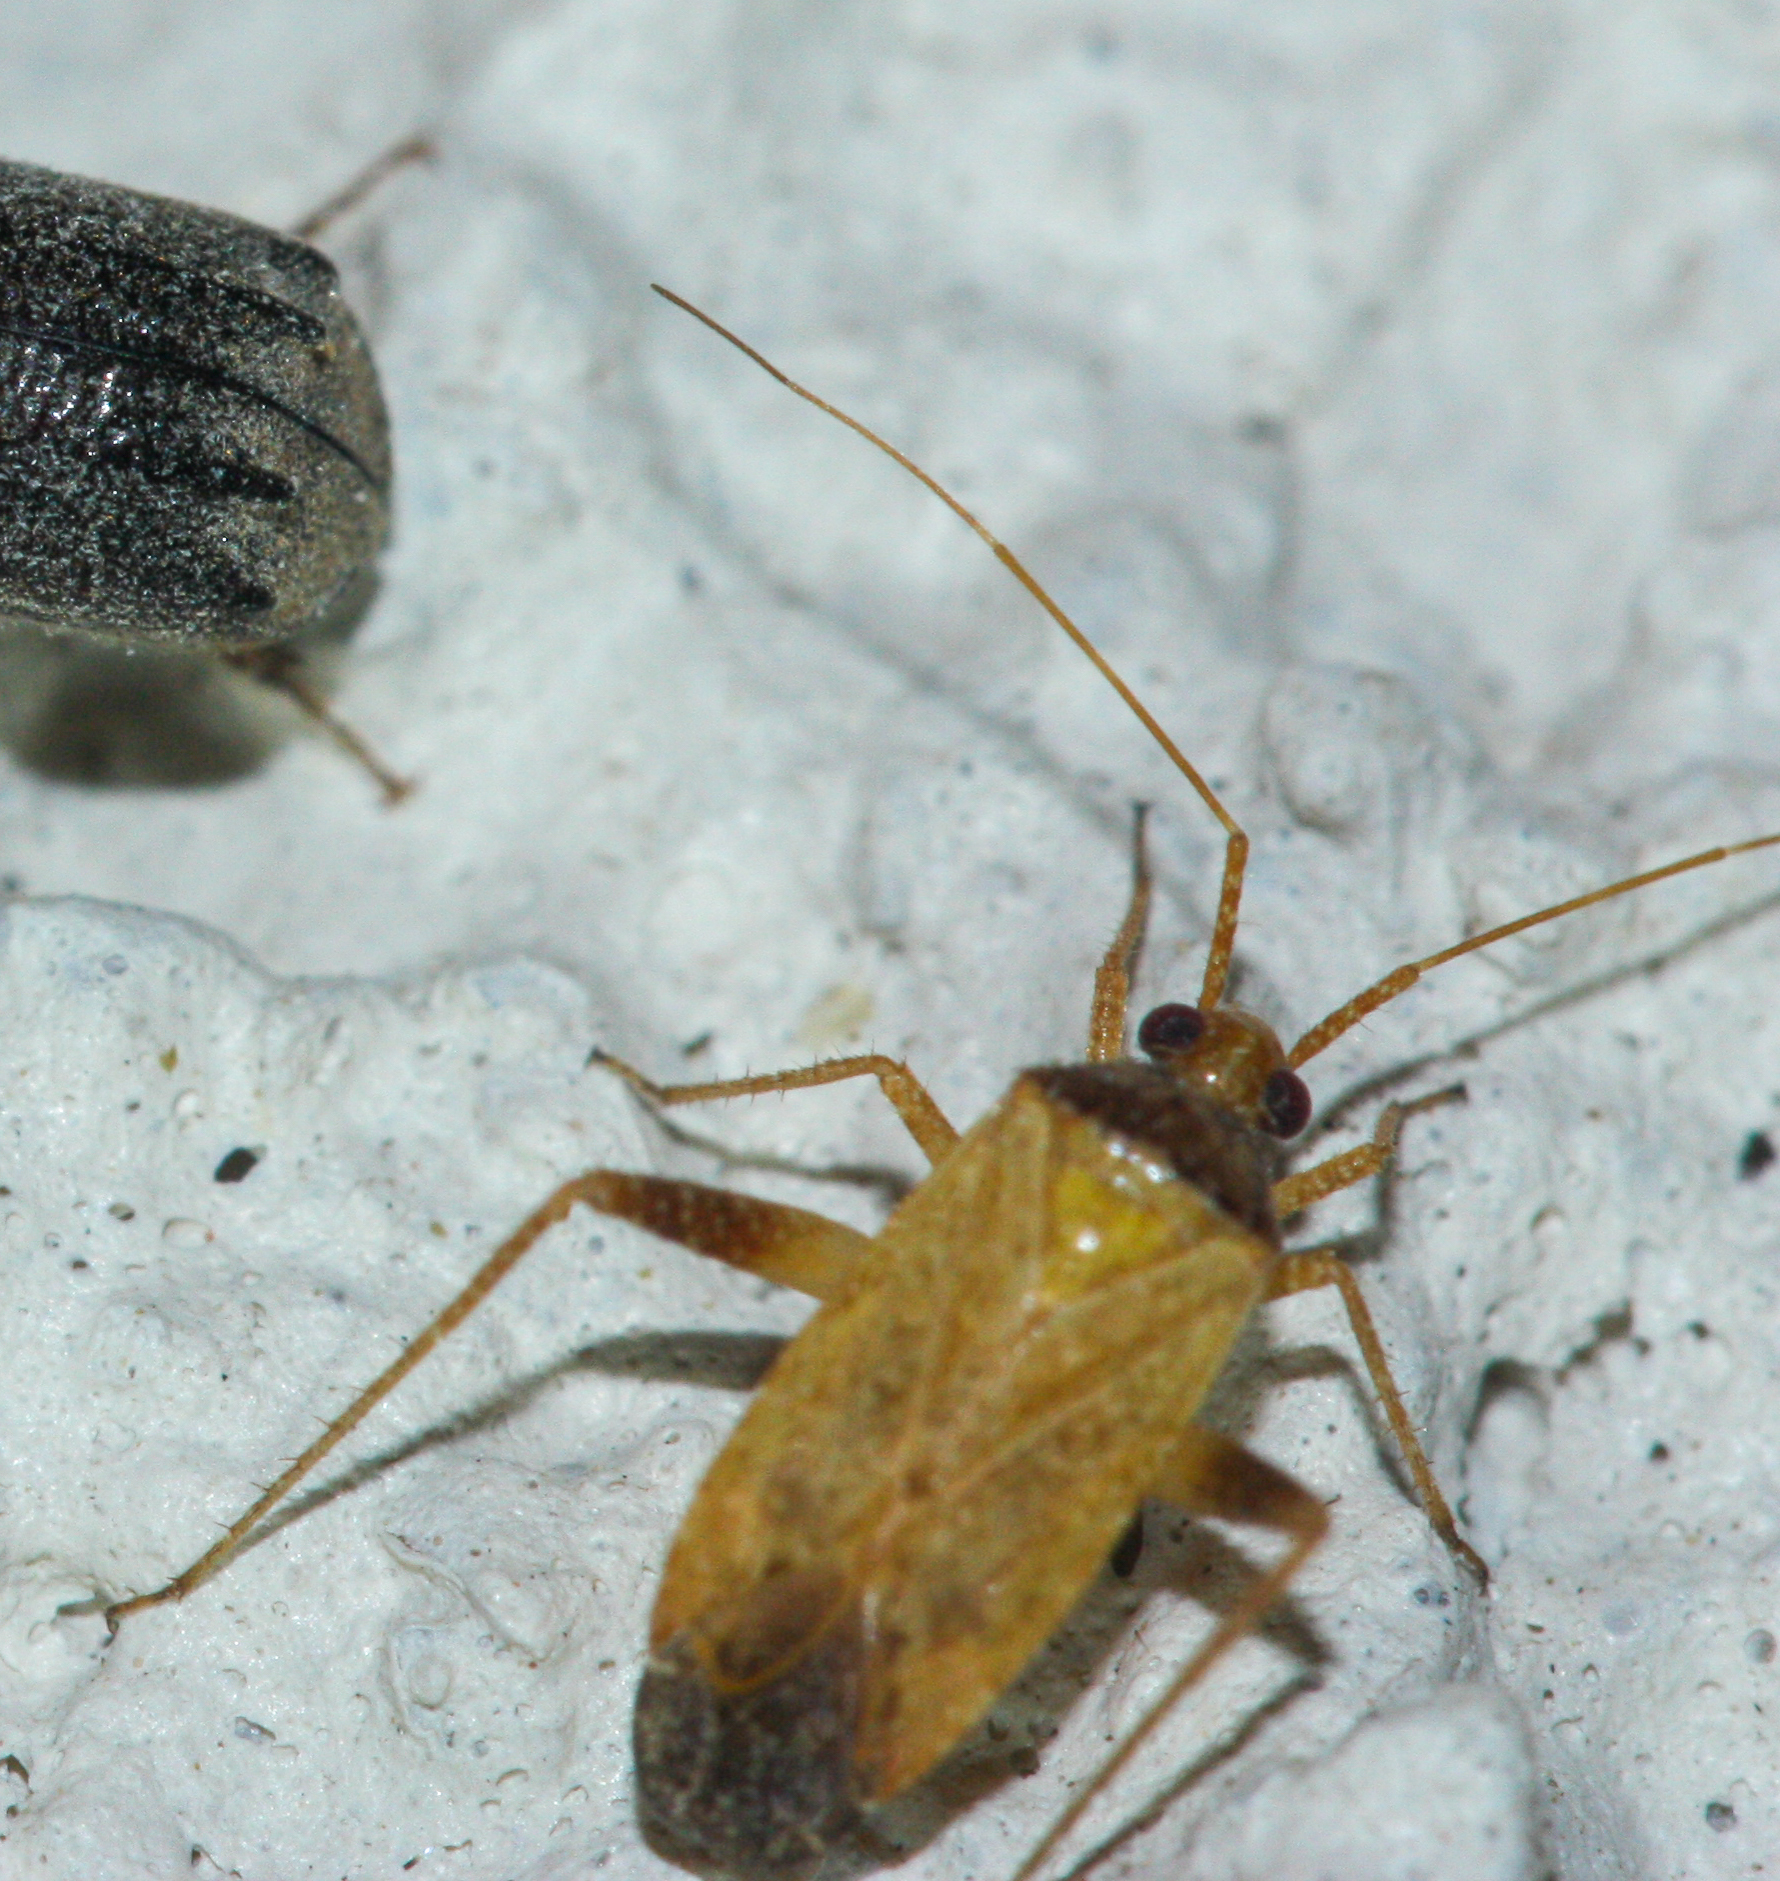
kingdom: Animalia
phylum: Arthropoda
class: Insecta
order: Hemiptera
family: Miridae
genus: Phytocoris
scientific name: Phytocoris ramosus
